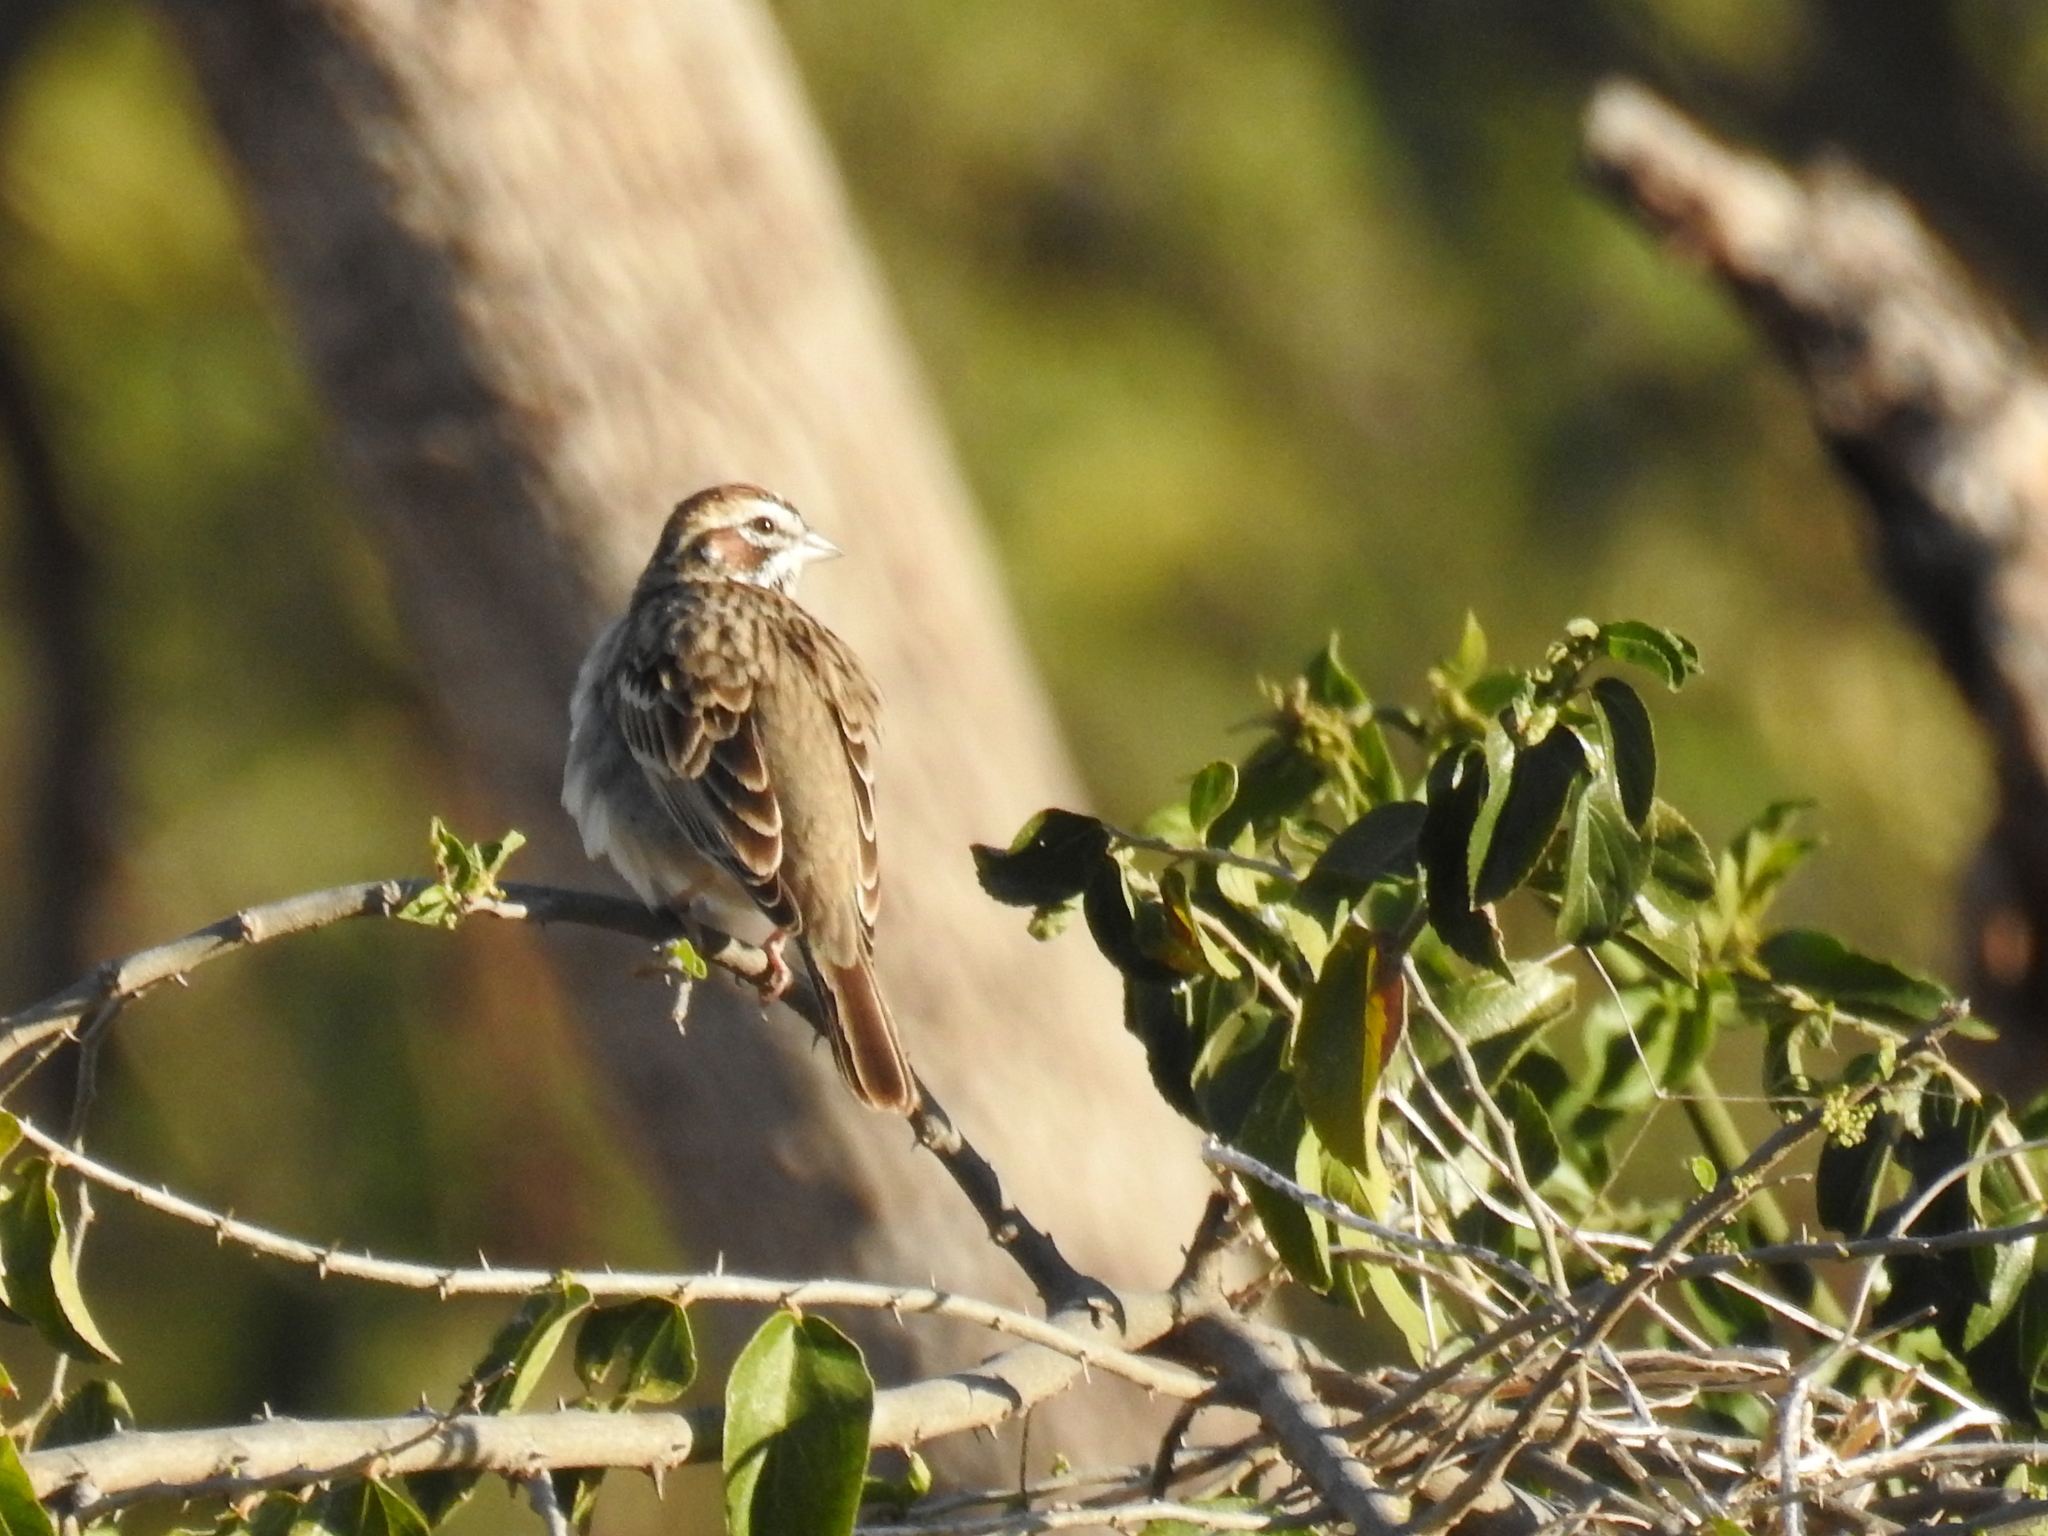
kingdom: Animalia
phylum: Chordata
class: Aves
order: Passeriformes
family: Passerellidae
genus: Chondestes
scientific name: Chondestes grammacus
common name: Lark sparrow
